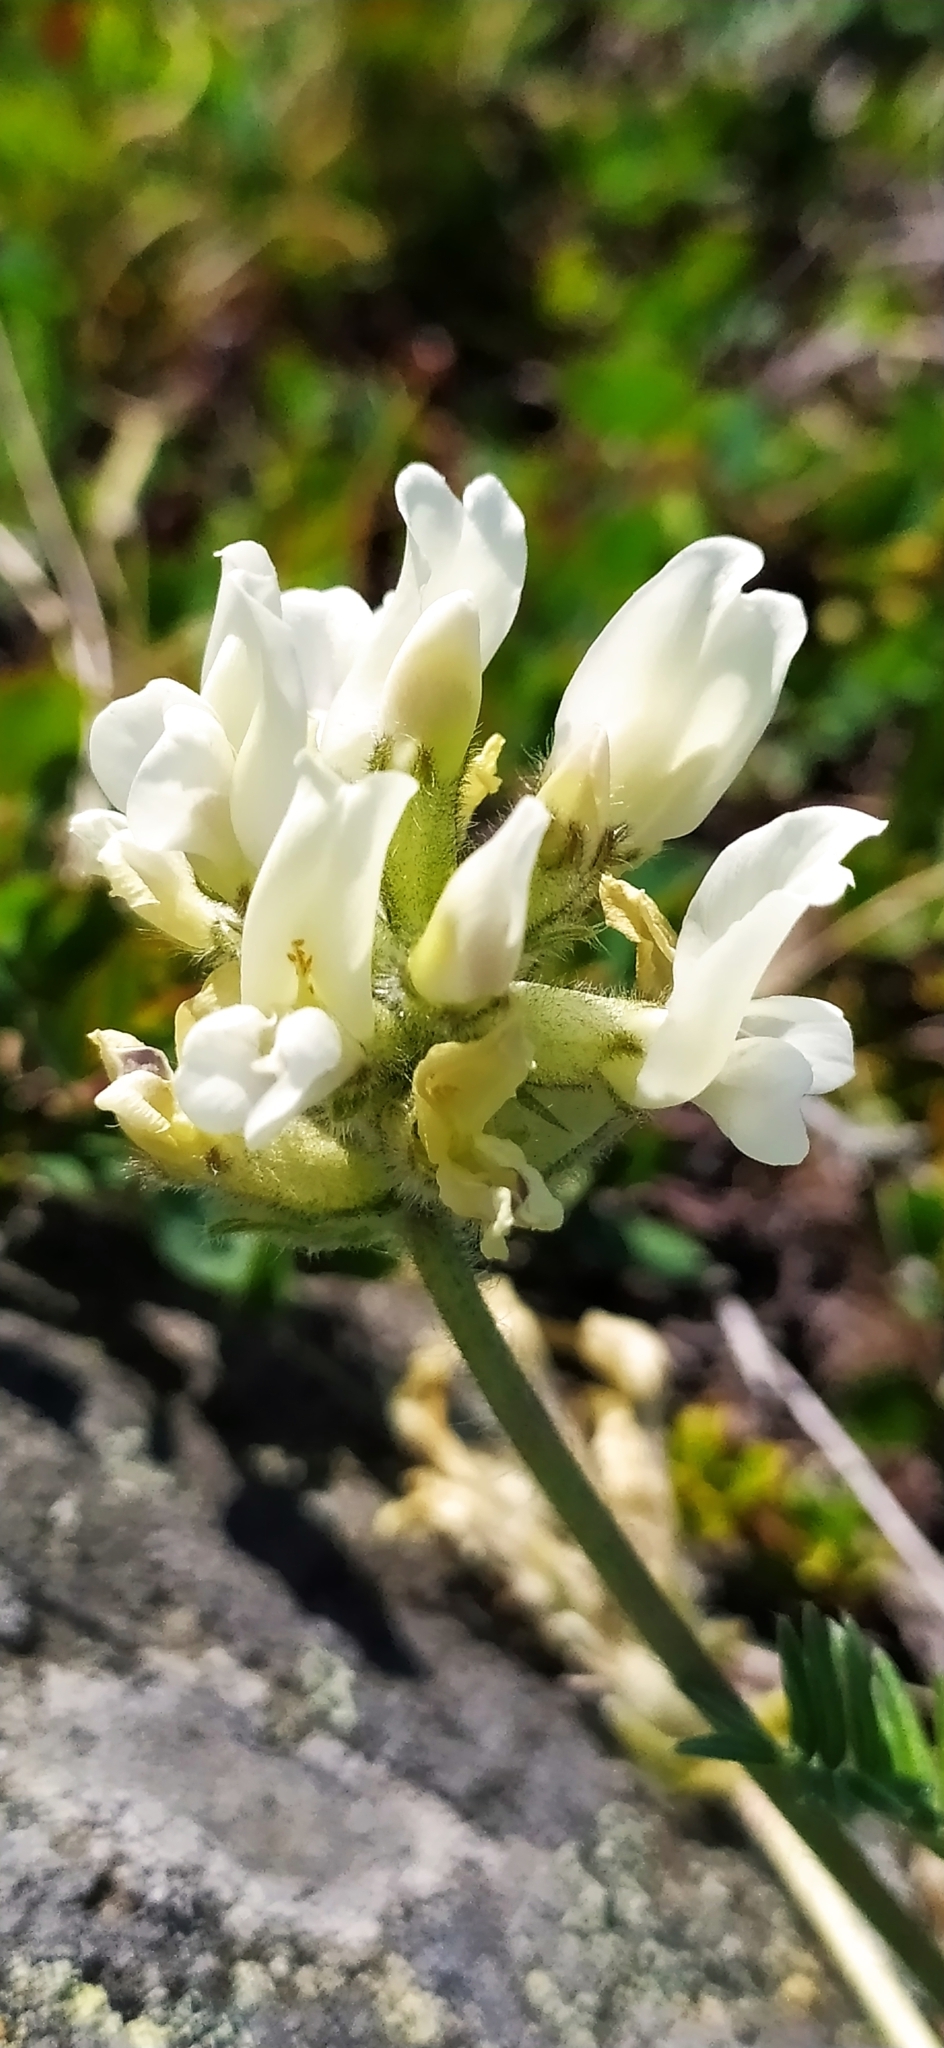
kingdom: Plantae
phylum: Tracheophyta
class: Magnoliopsida
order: Fabales
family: Fabaceae
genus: Oxytropis
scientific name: Oxytropis sordida
